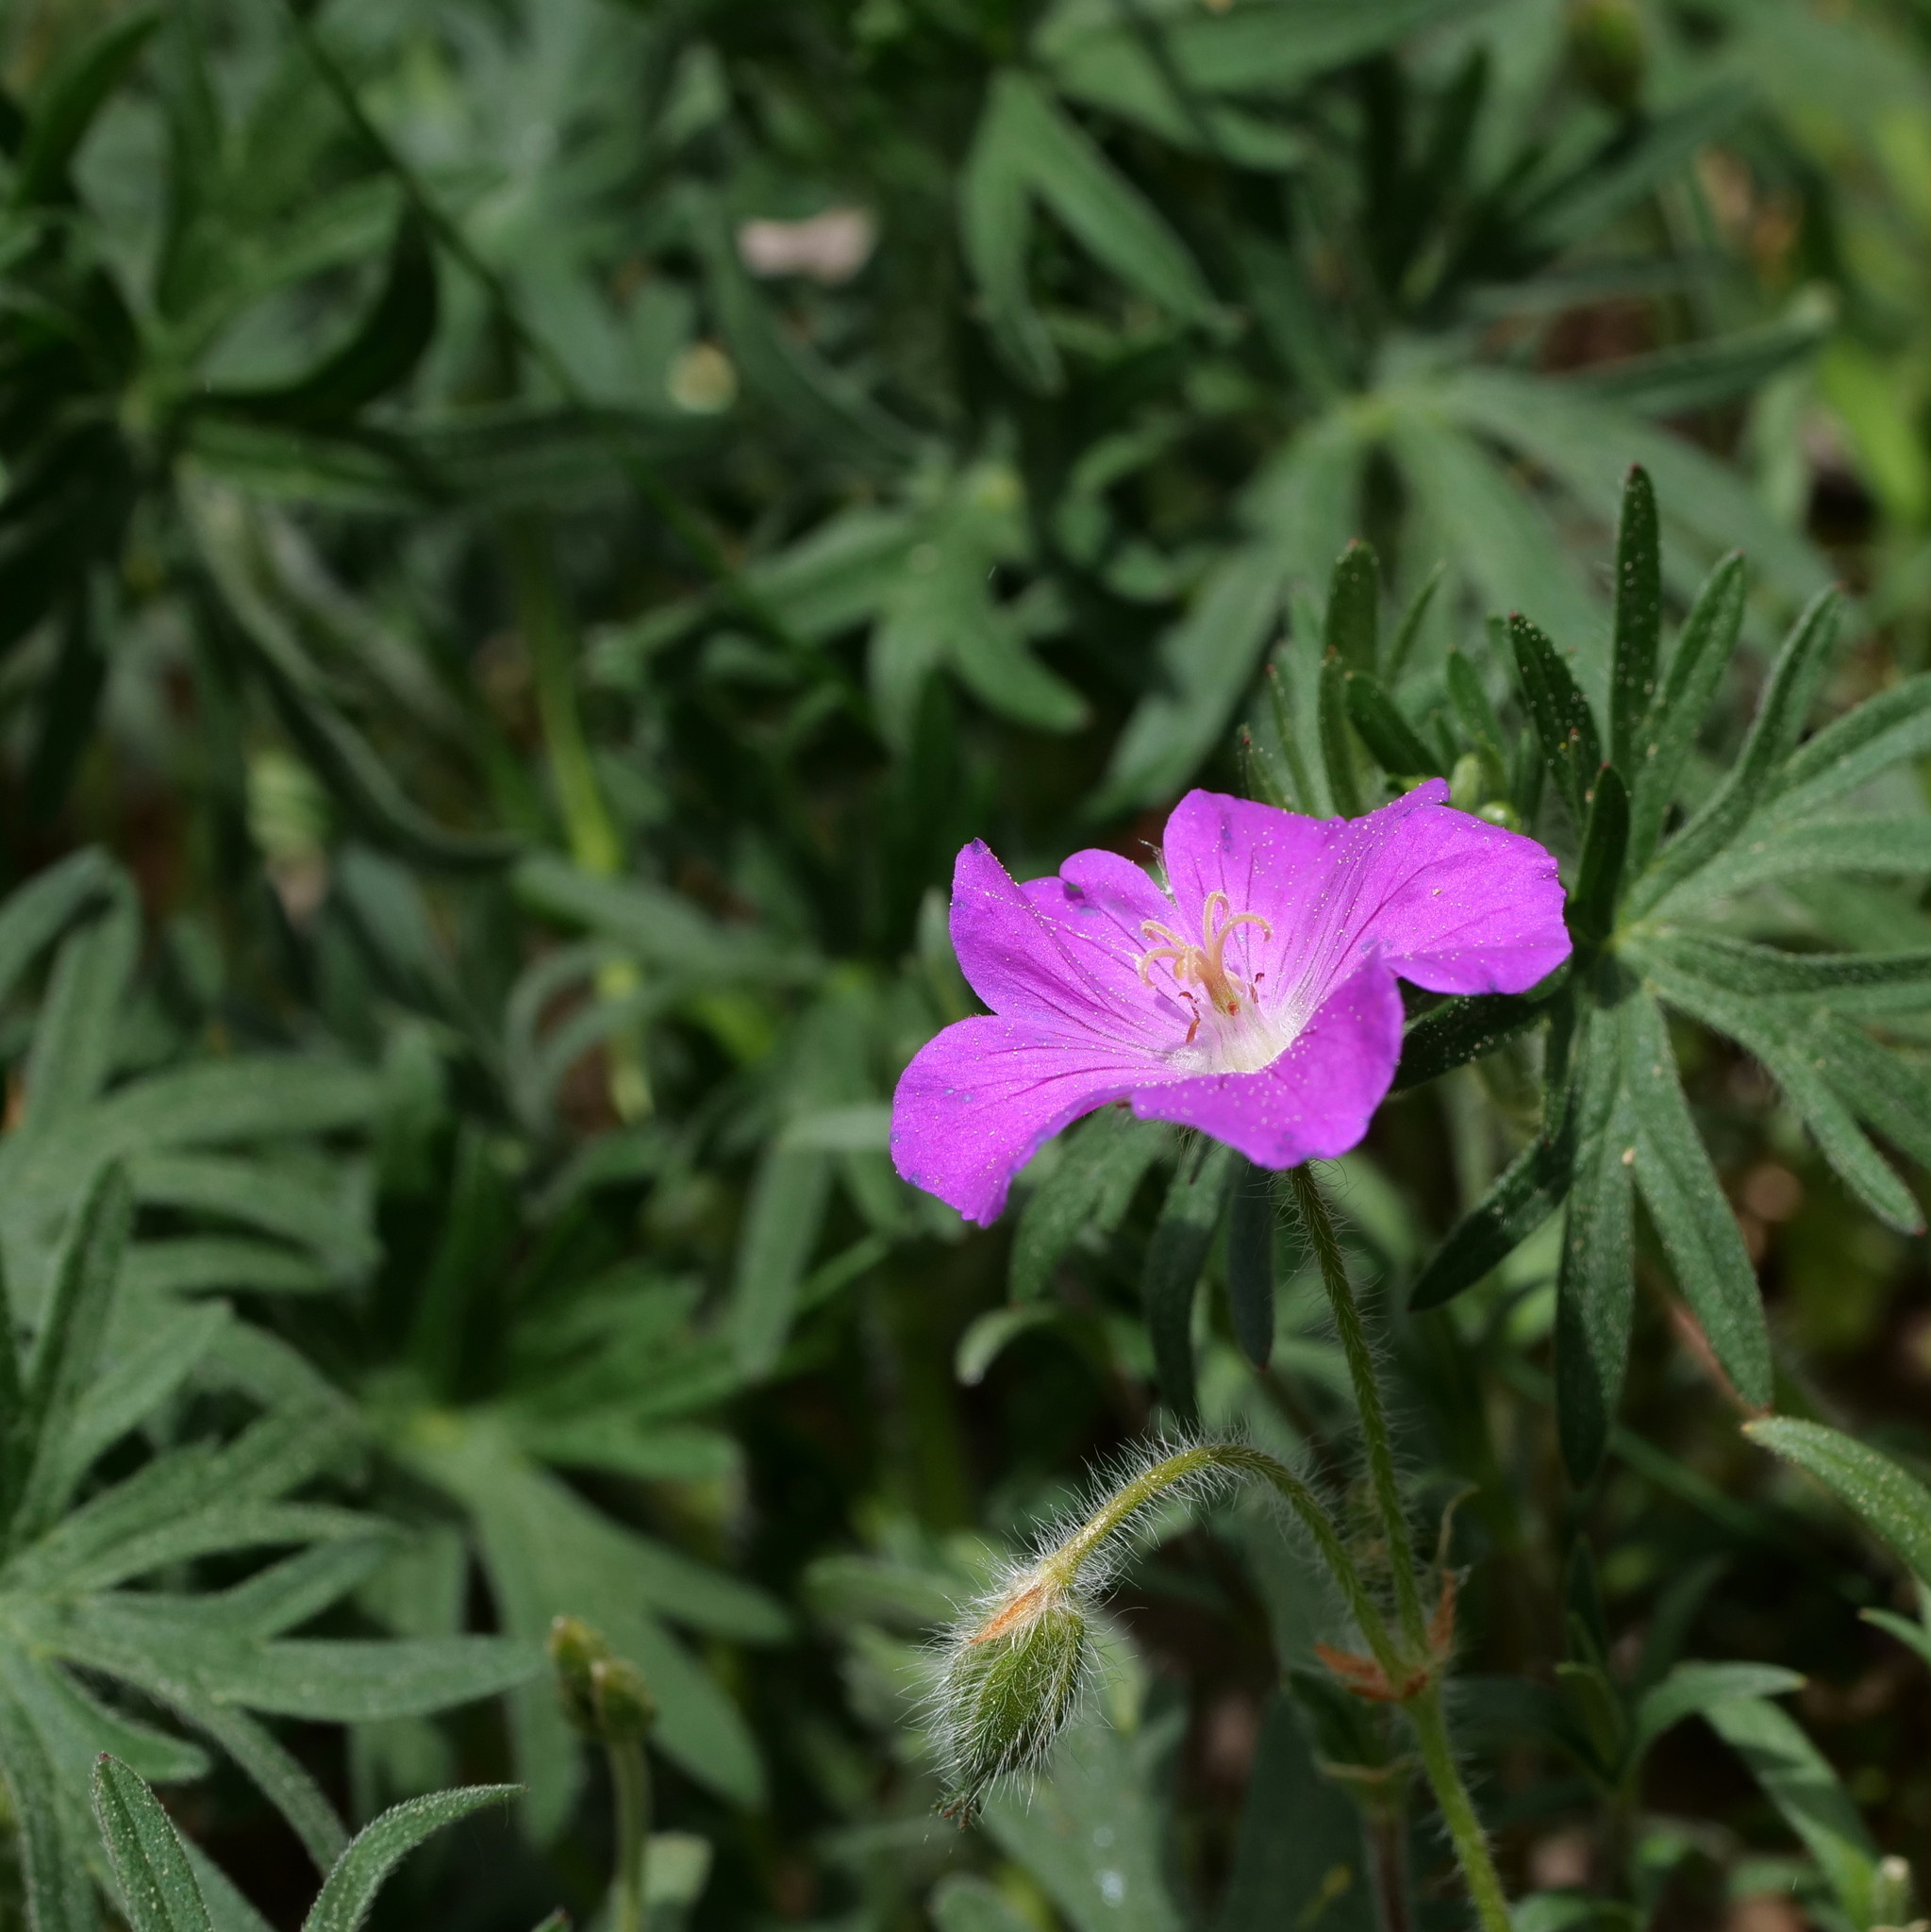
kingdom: Plantae
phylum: Tracheophyta
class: Magnoliopsida
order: Geraniales
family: Geraniaceae
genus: Geranium
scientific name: Geranium sanguineum
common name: Bloody crane's-bill
